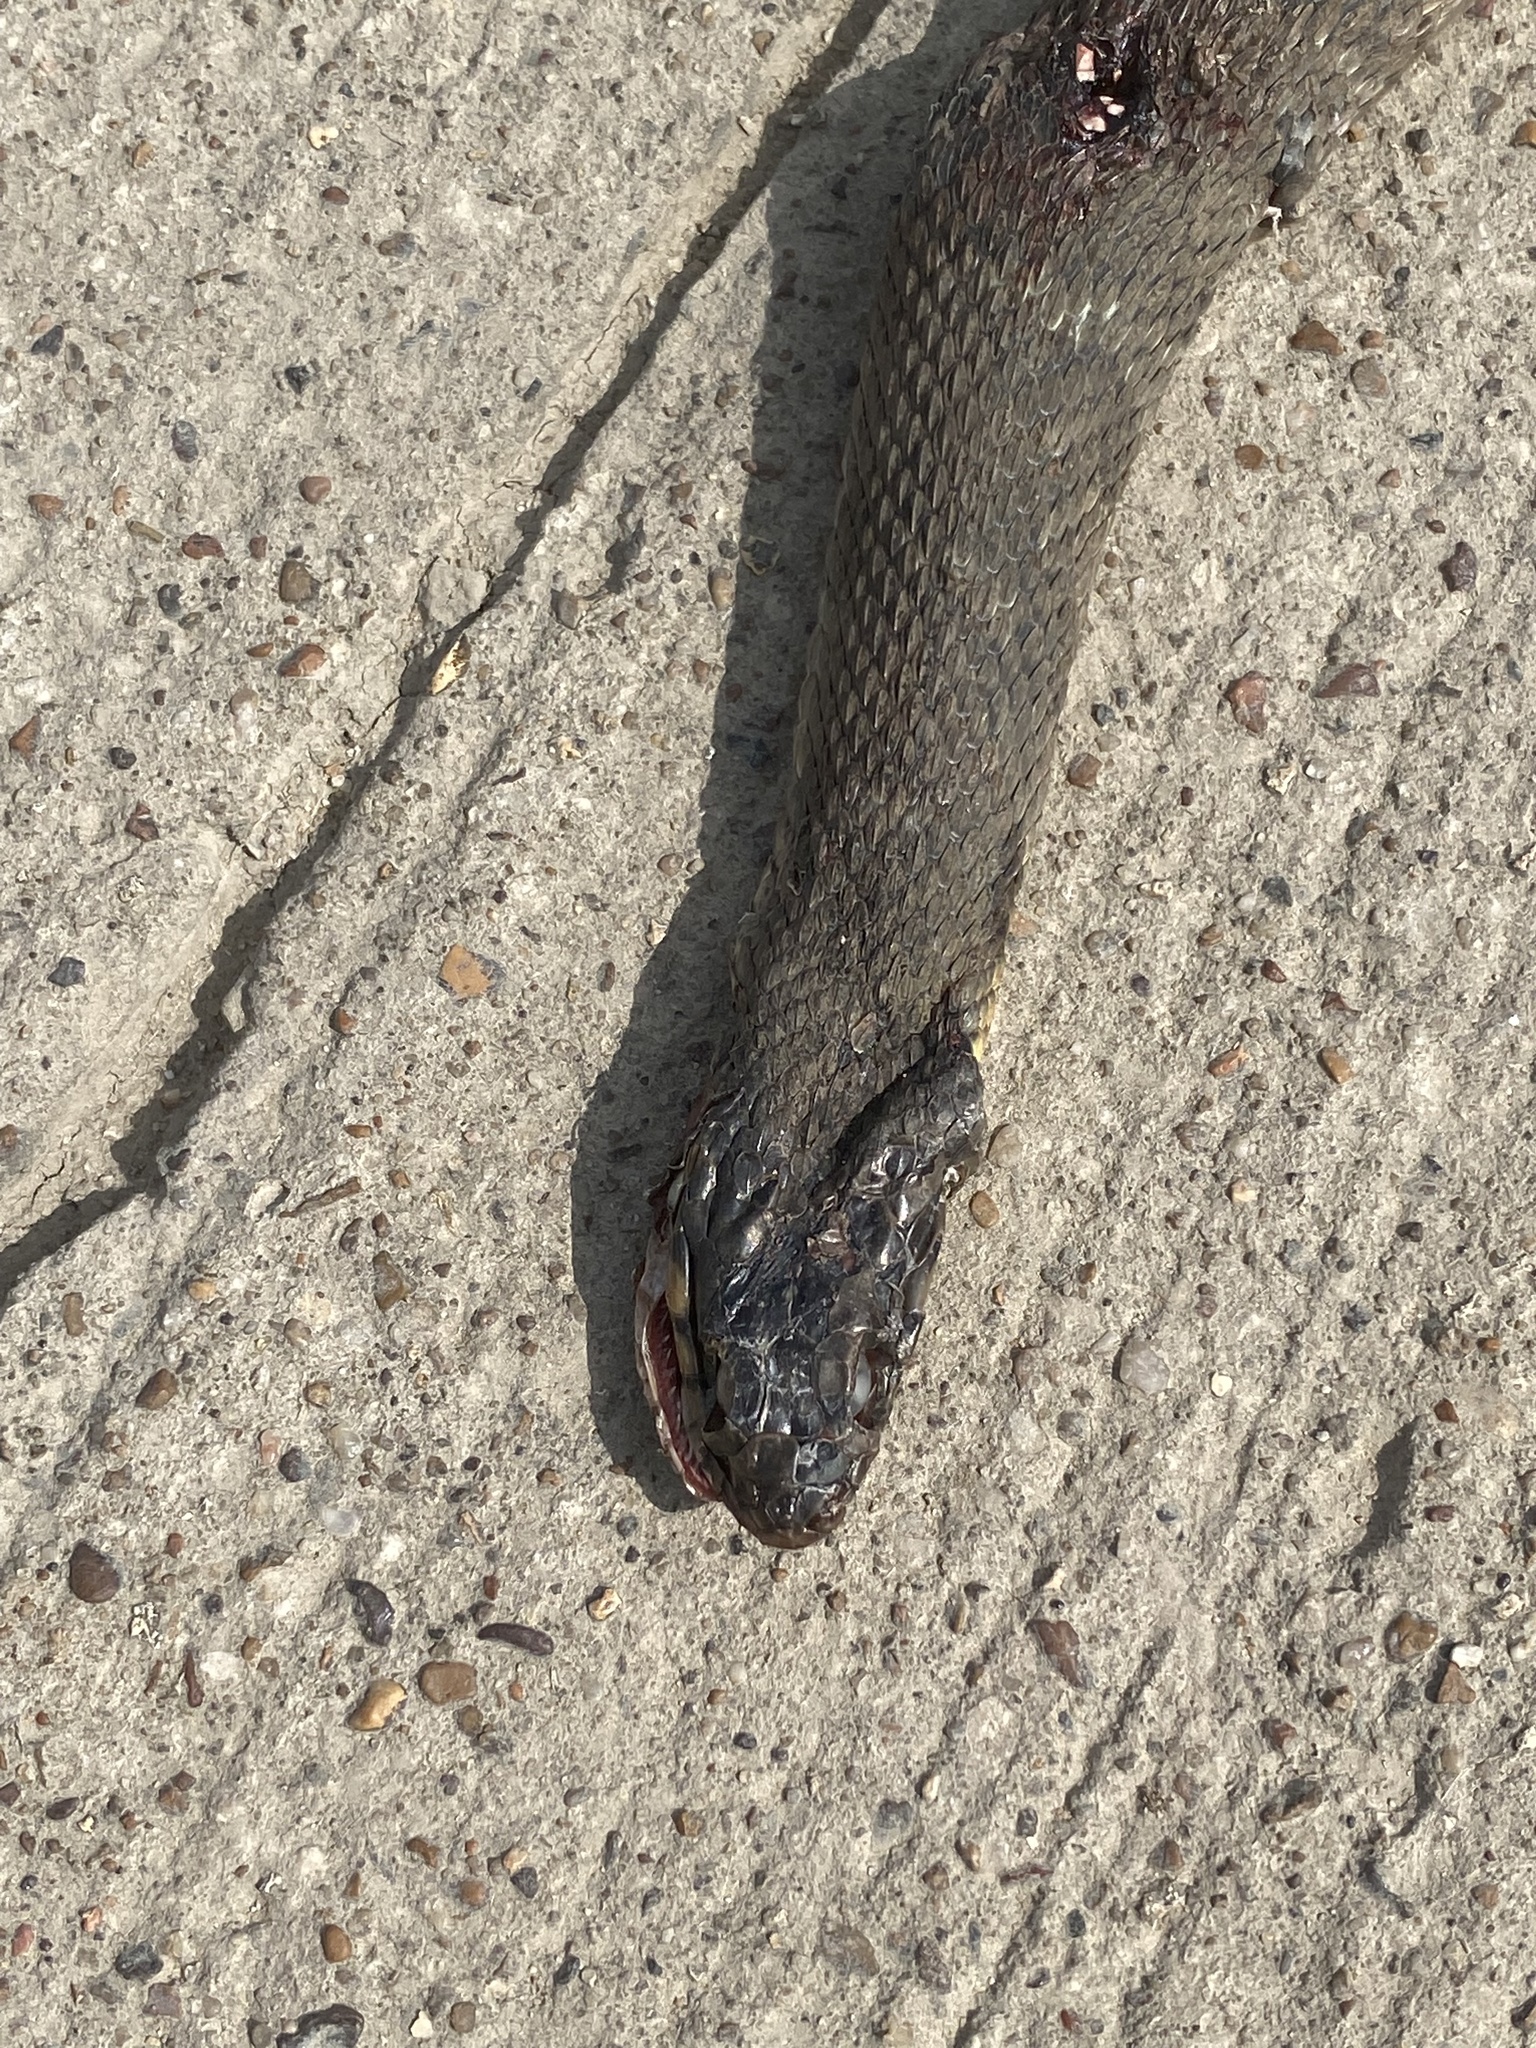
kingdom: Animalia
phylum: Chordata
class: Squamata
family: Colubridae
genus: Nerodia
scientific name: Nerodia erythrogaster
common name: Plainbelly water snake
